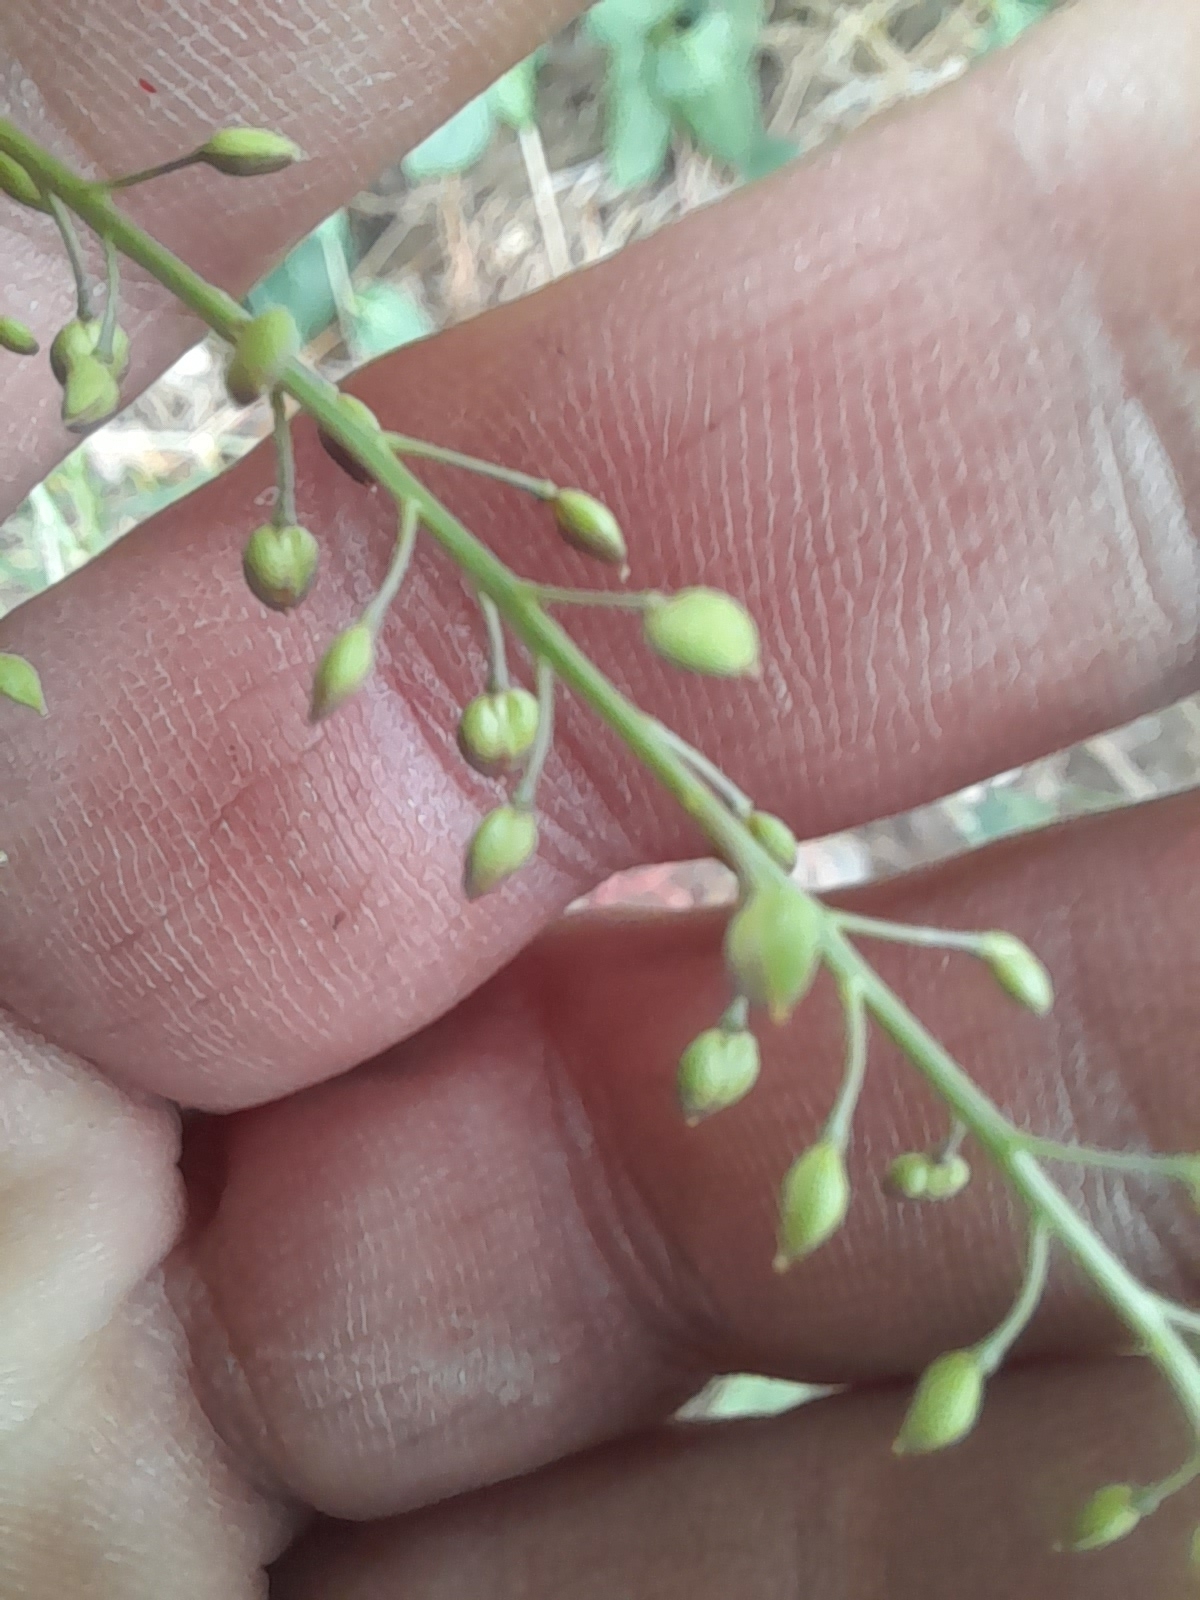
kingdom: Plantae
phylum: Tracheophyta
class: Magnoliopsida
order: Brassicales
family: Brassicaceae
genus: Lepidium
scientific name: Lepidium graminifolium
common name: Tall pepperwort
